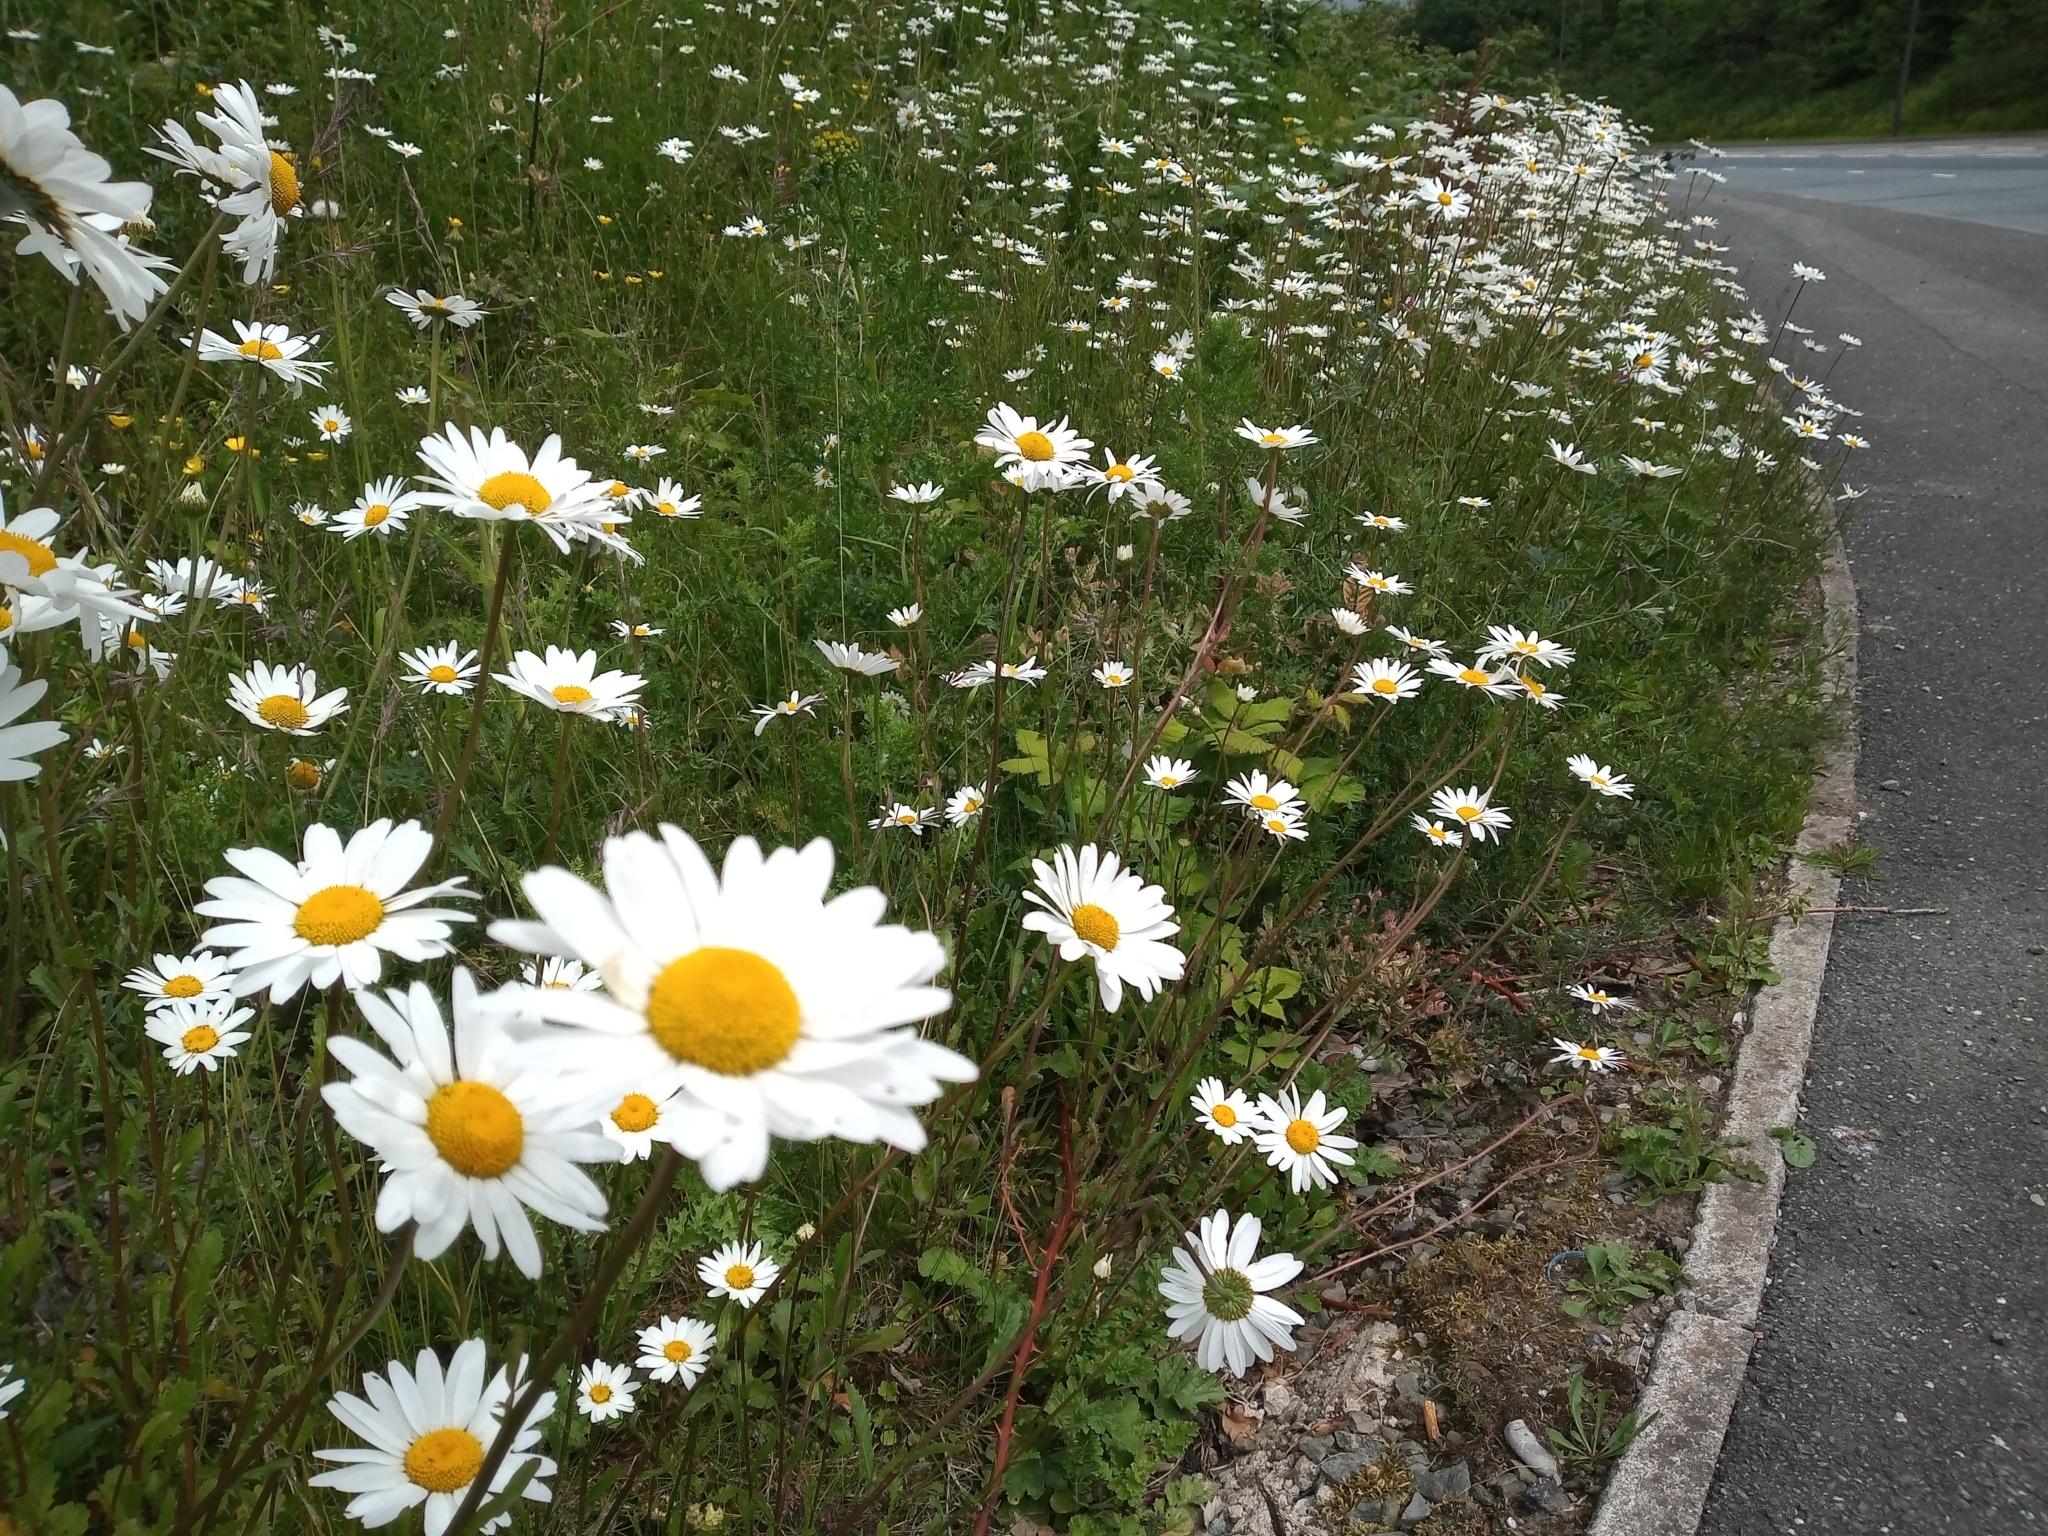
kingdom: Plantae
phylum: Tracheophyta
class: Magnoliopsida
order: Asterales
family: Asteraceae
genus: Leucanthemum
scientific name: Leucanthemum vulgare
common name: Oxeye daisy
